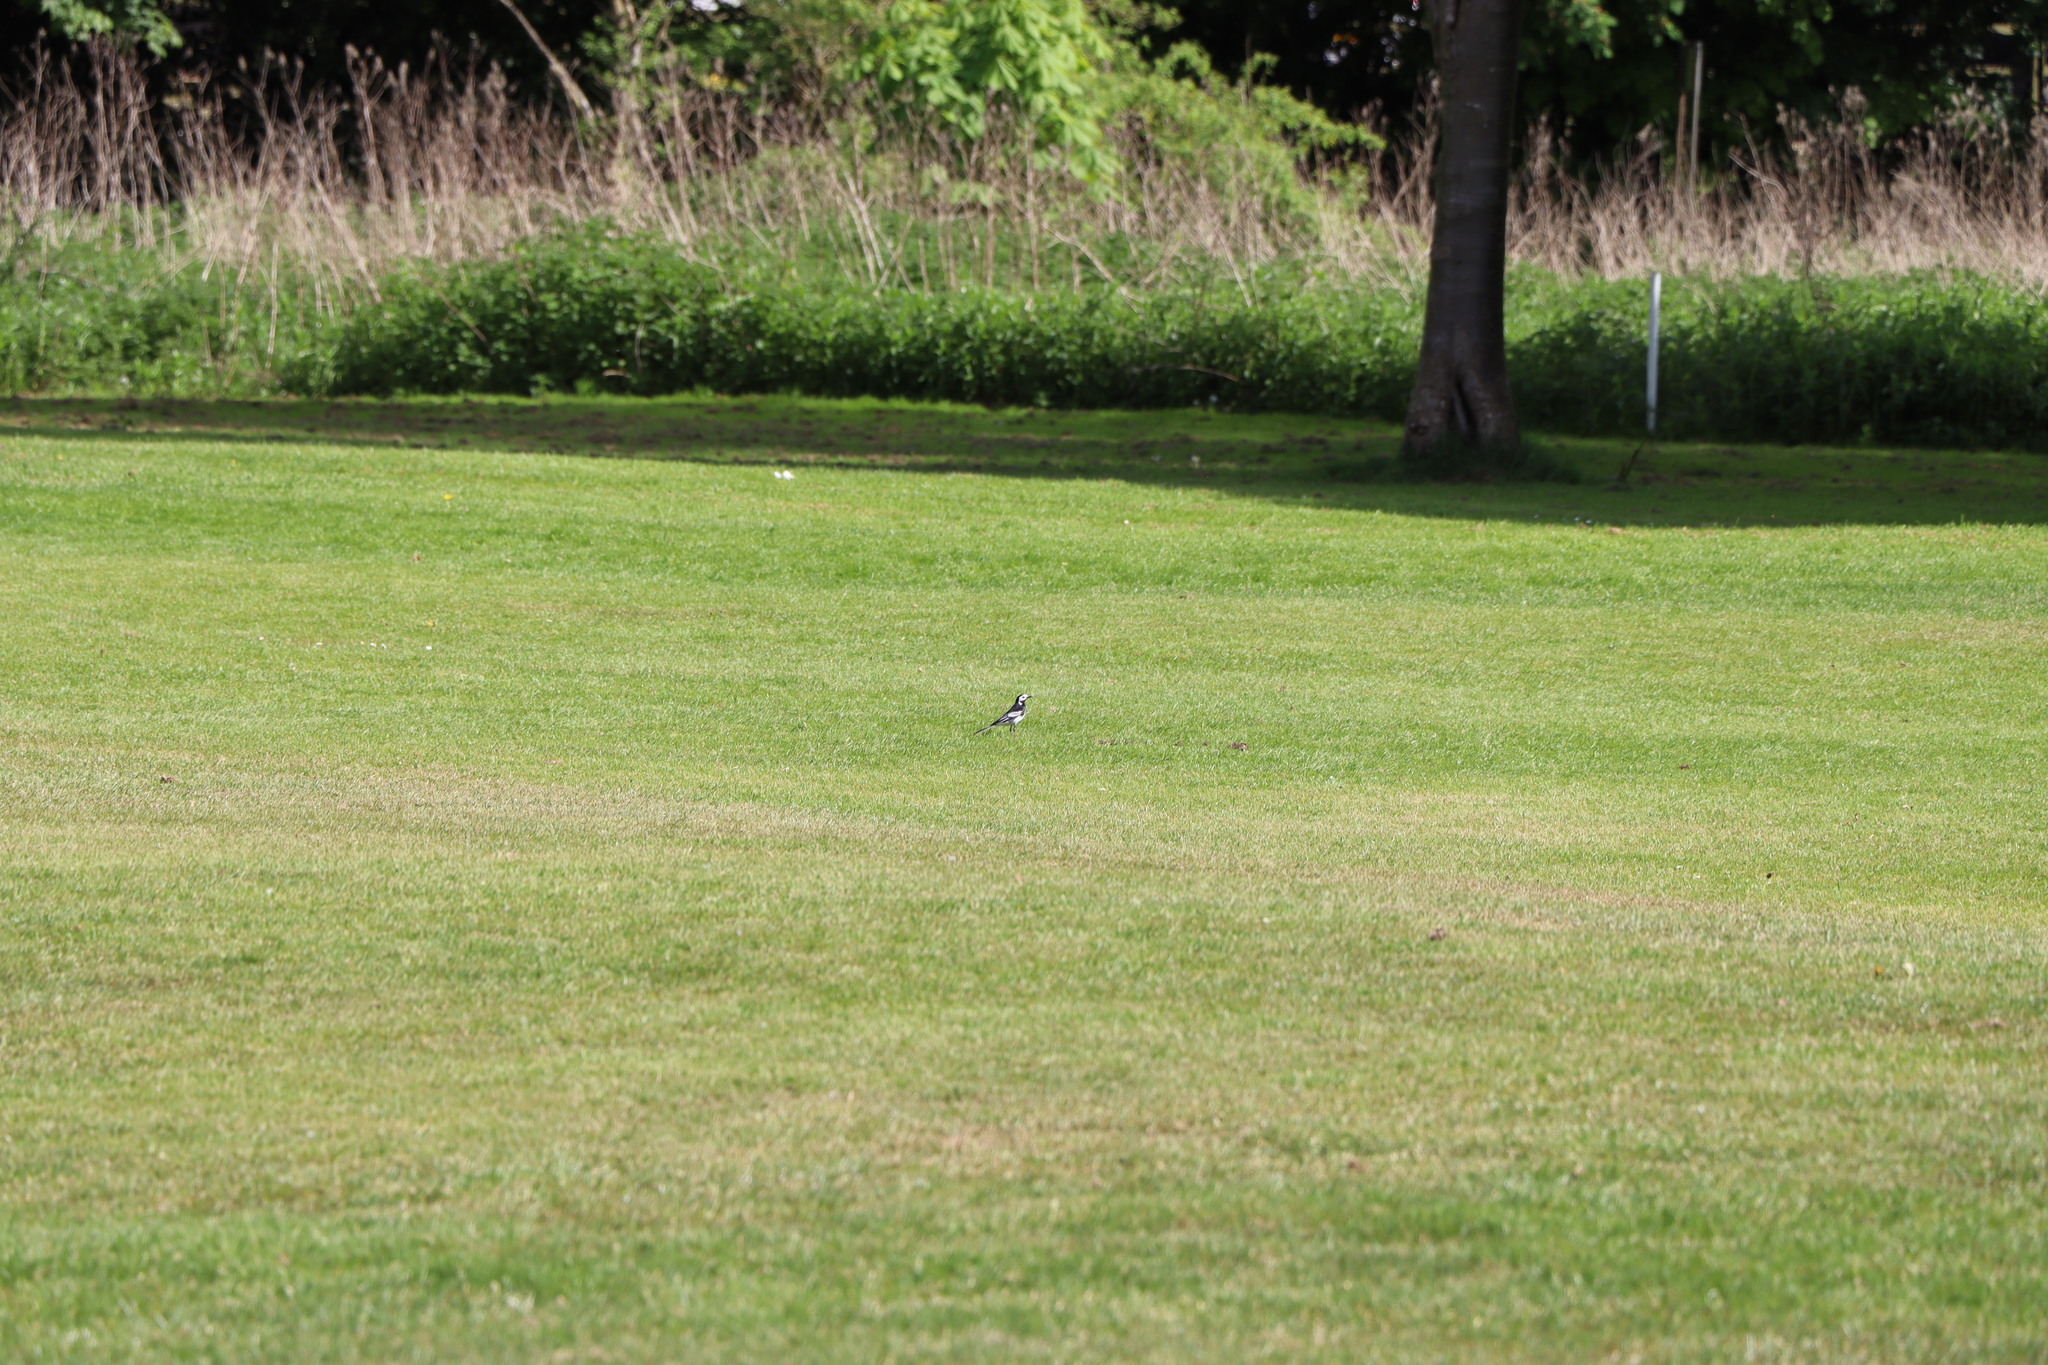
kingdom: Animalia
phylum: Chordata
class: Aves
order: Passeriformes
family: Motacillidae
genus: Motacilla
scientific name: Motacilla alba
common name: White wagtail
